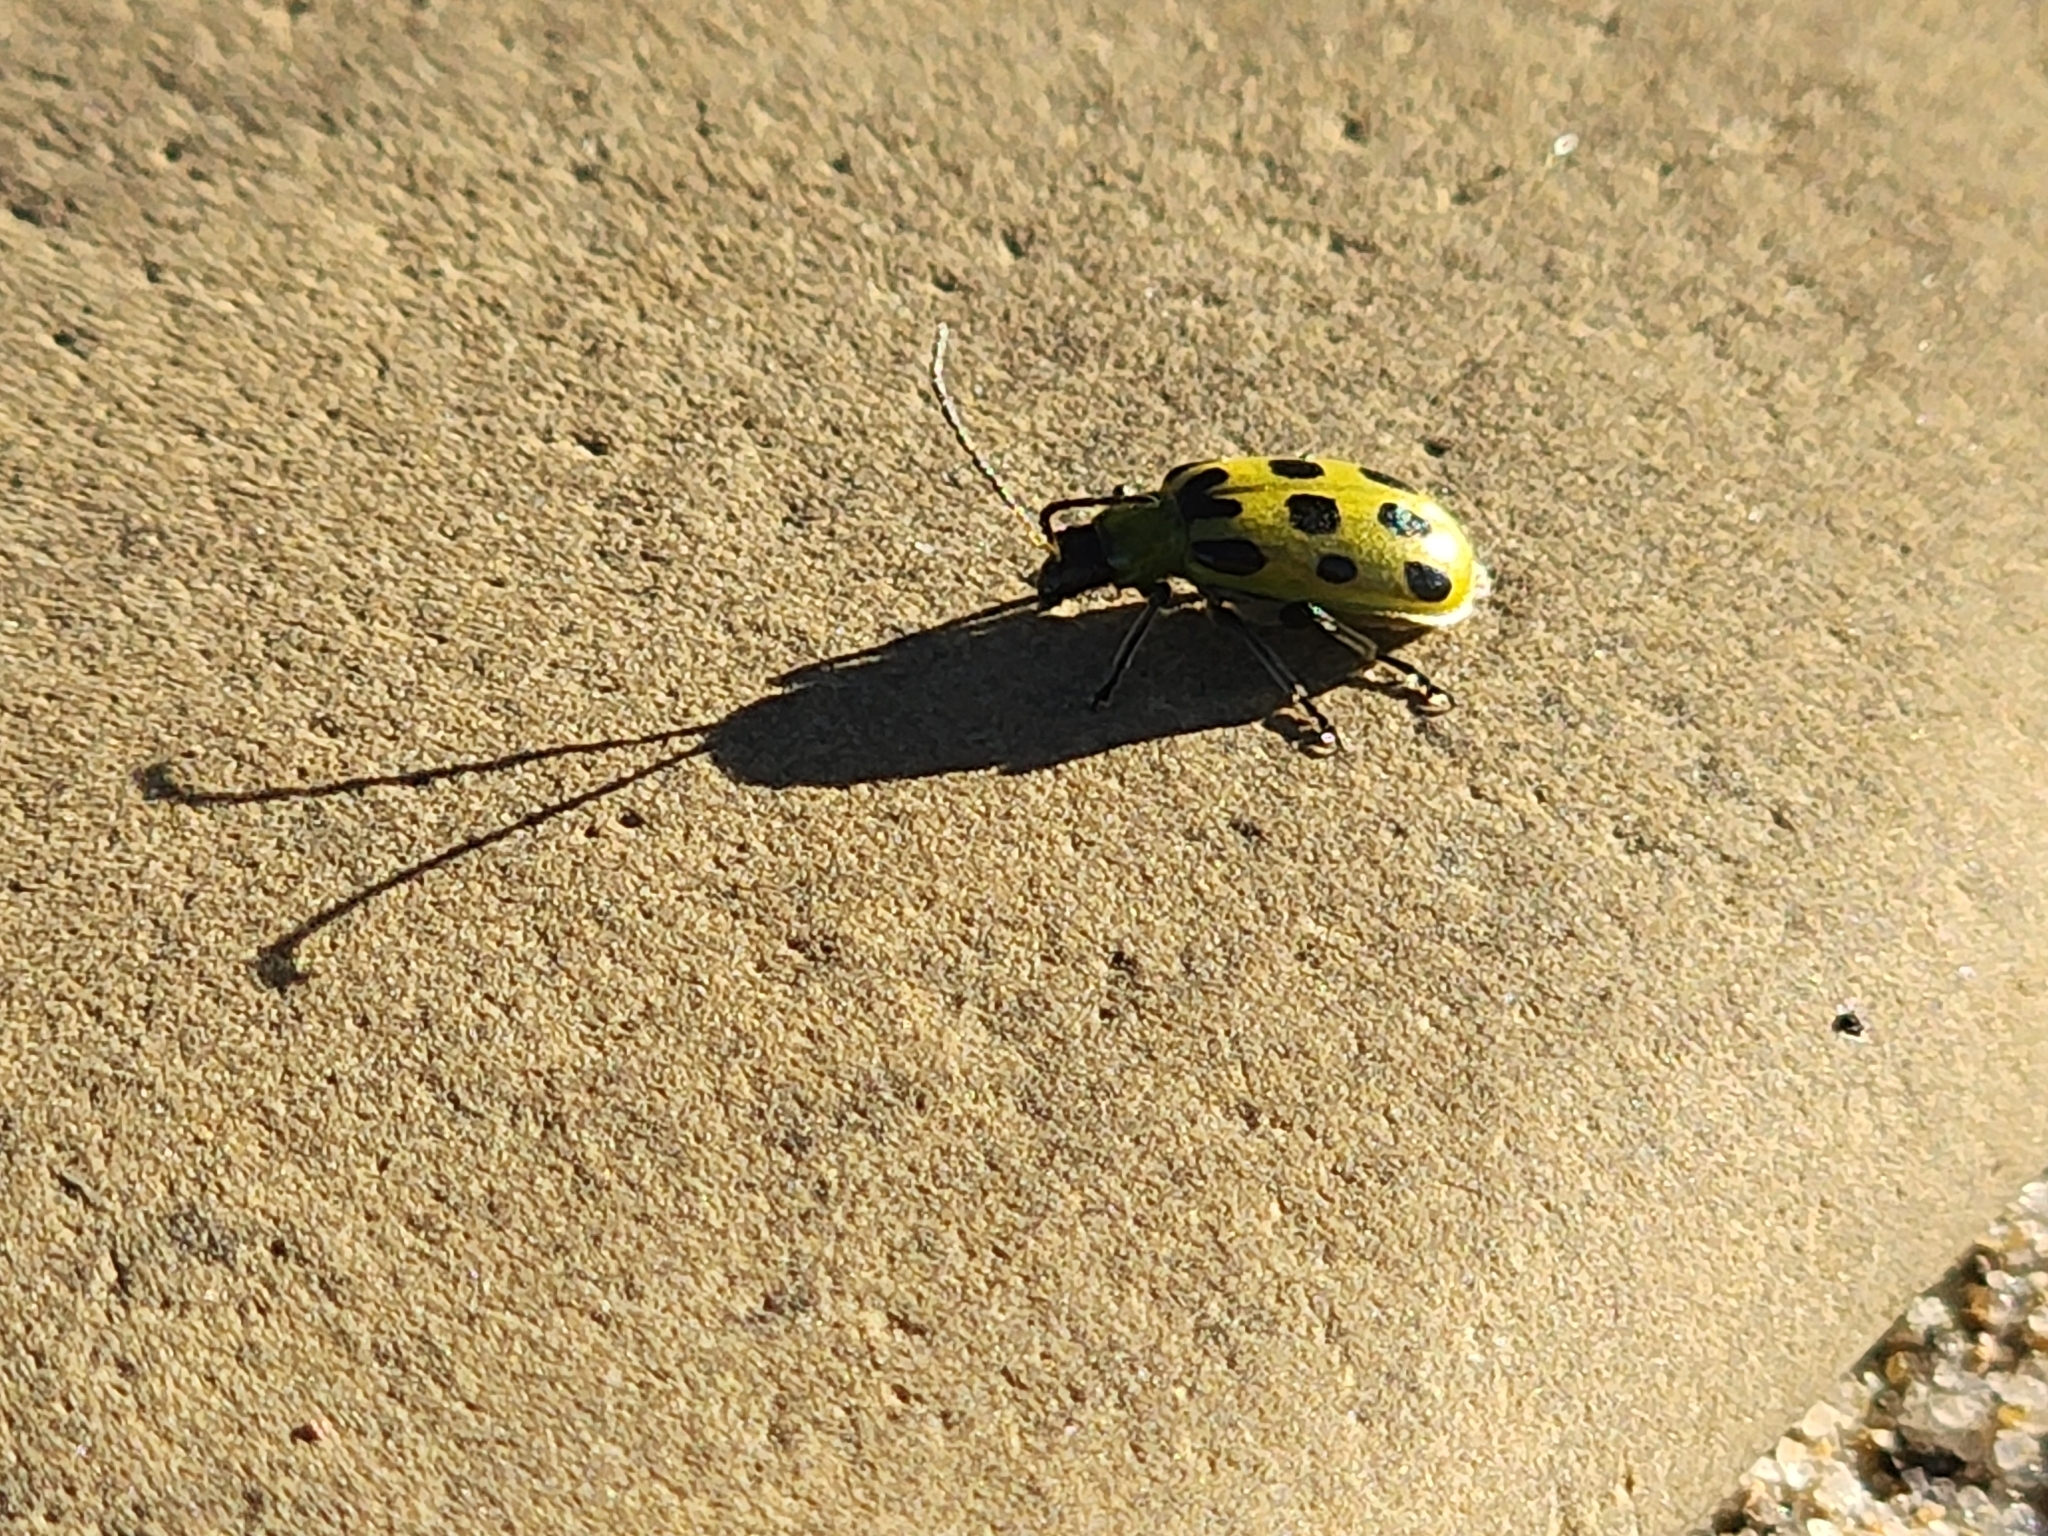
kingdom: Animalia
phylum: Arthropoda
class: Insecta
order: Coleoptera
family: Chrysomelidae
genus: Diabrotica
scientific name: Diabrotica undecimpunctata
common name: Spotted cucumber beetle
